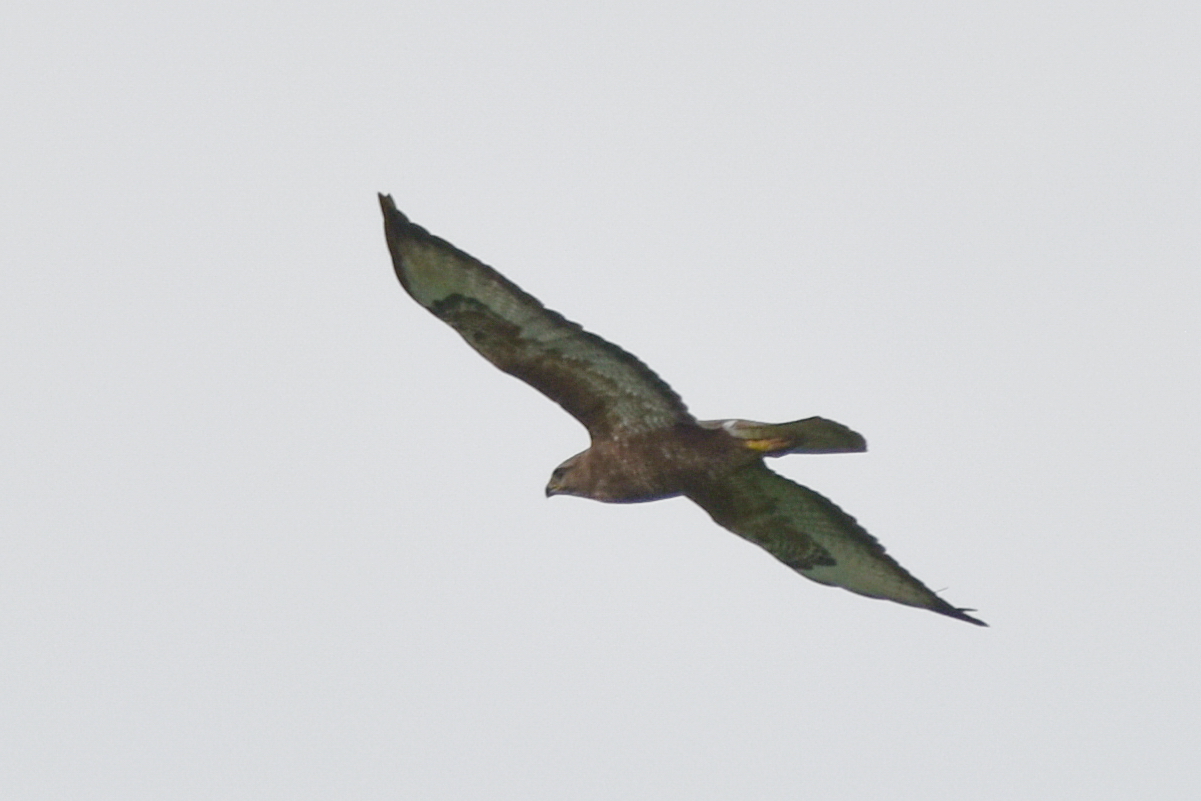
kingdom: Animalia
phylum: Chordata
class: Aves
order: Accipitriformes
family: Accipitridae
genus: Buteo
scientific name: Buteo buteo
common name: Common buzzard
